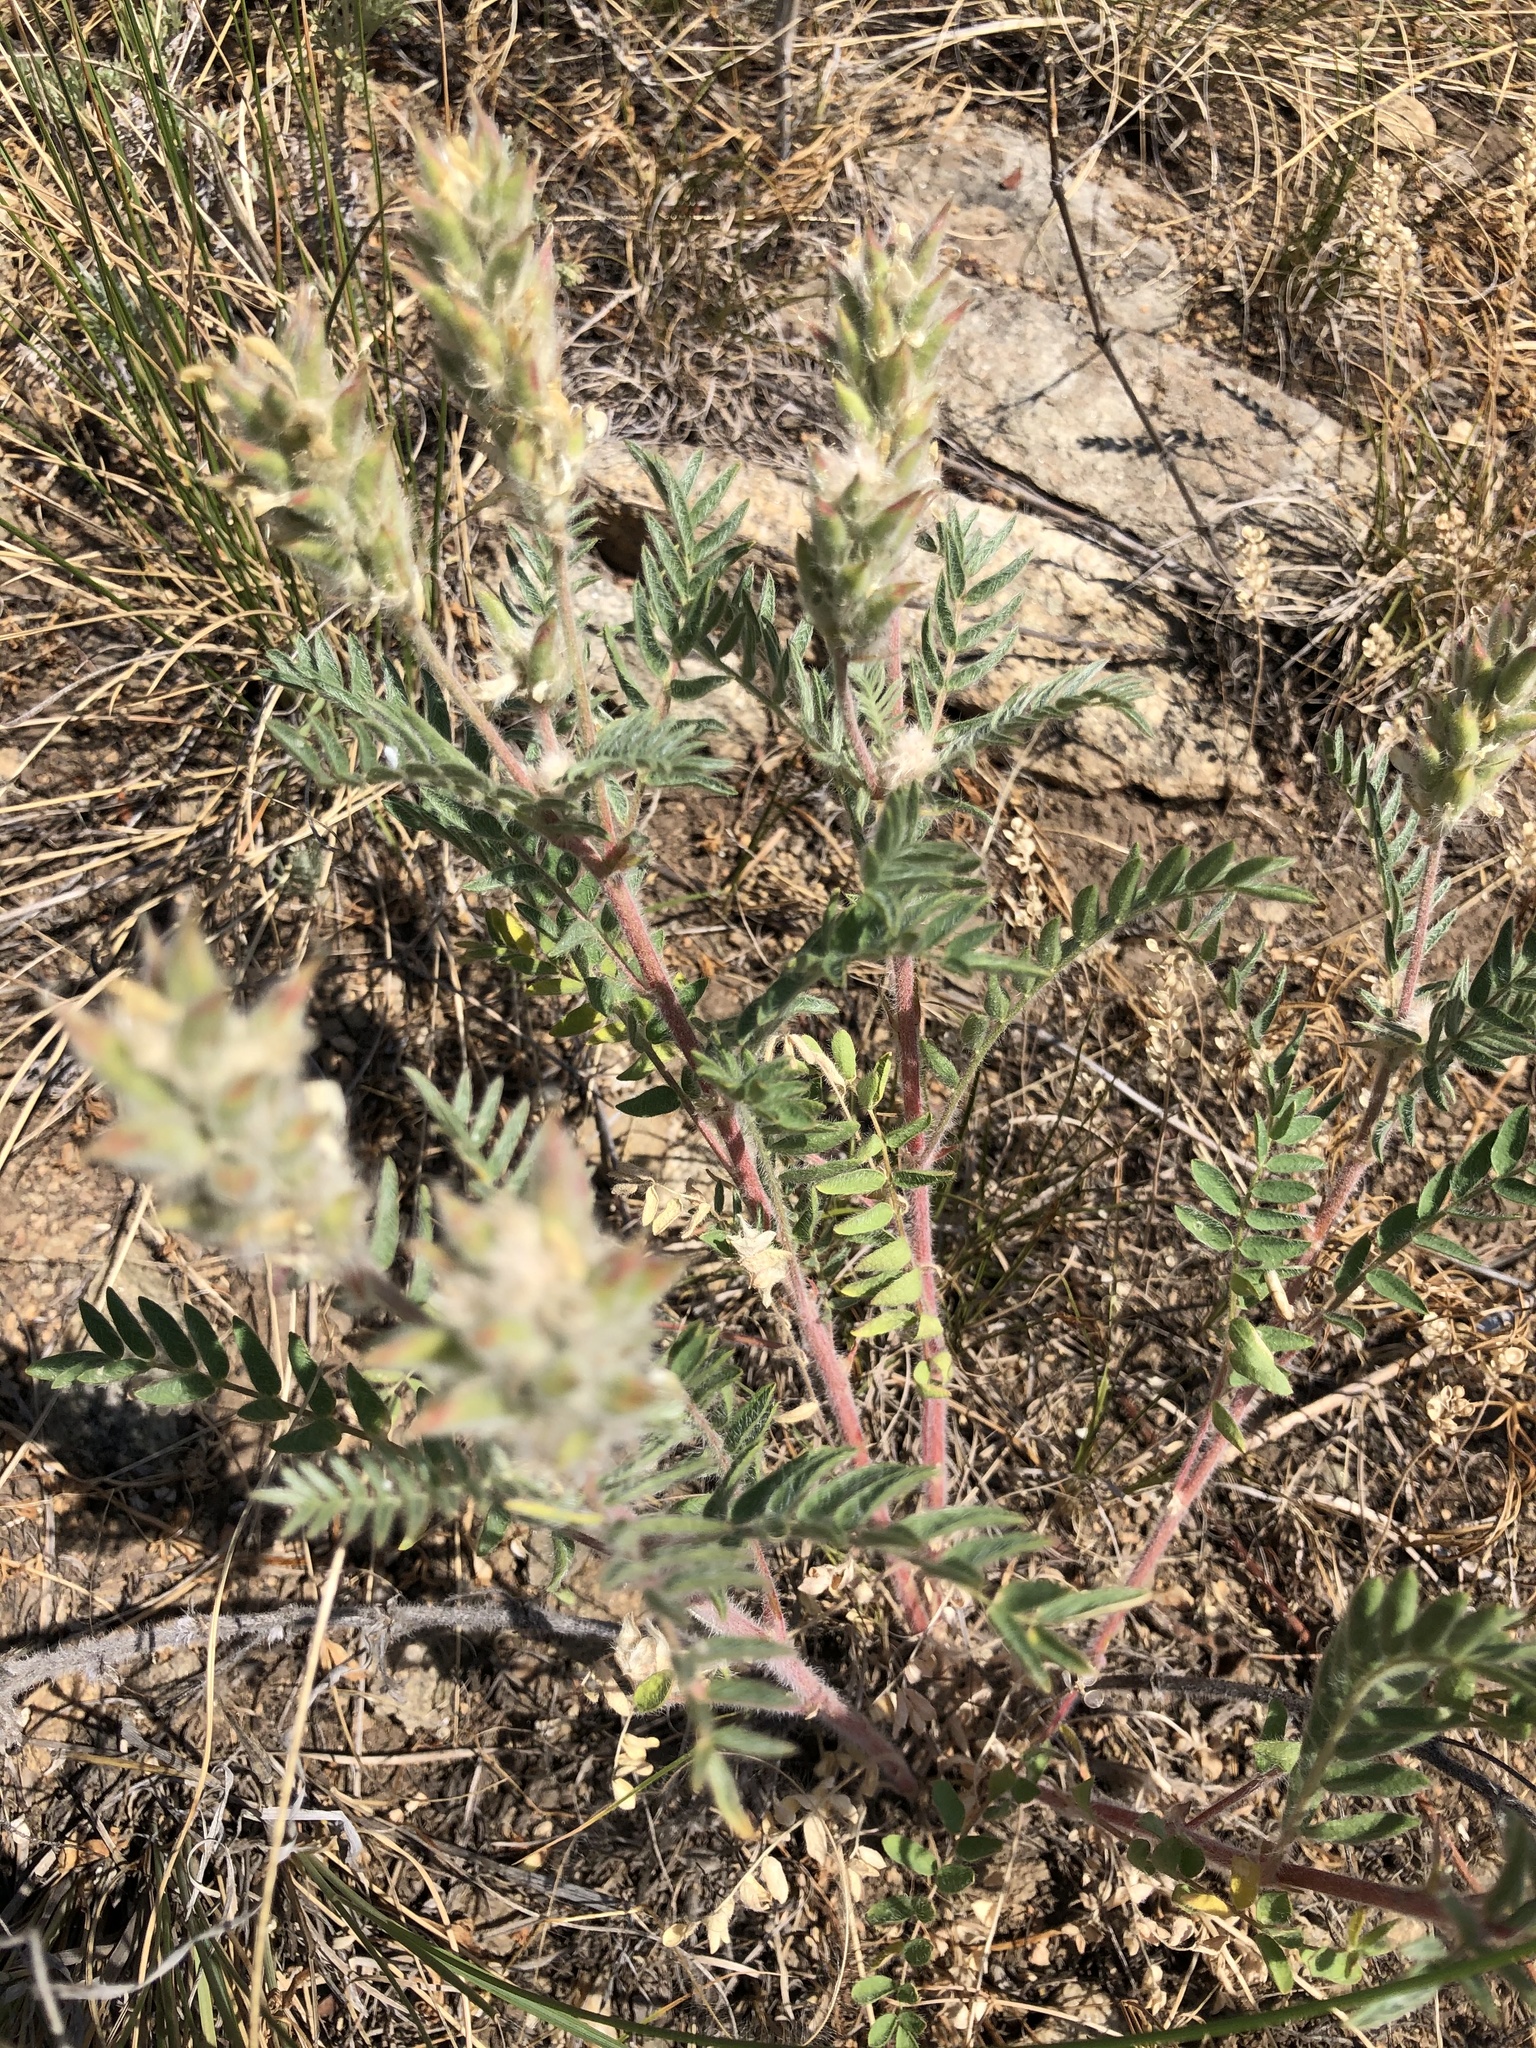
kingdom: Plantae
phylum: Tracheophyta
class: Magnoliopsida
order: Fabales
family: Fabaceae
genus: Oxytropis
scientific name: Oxytropis pilosa
